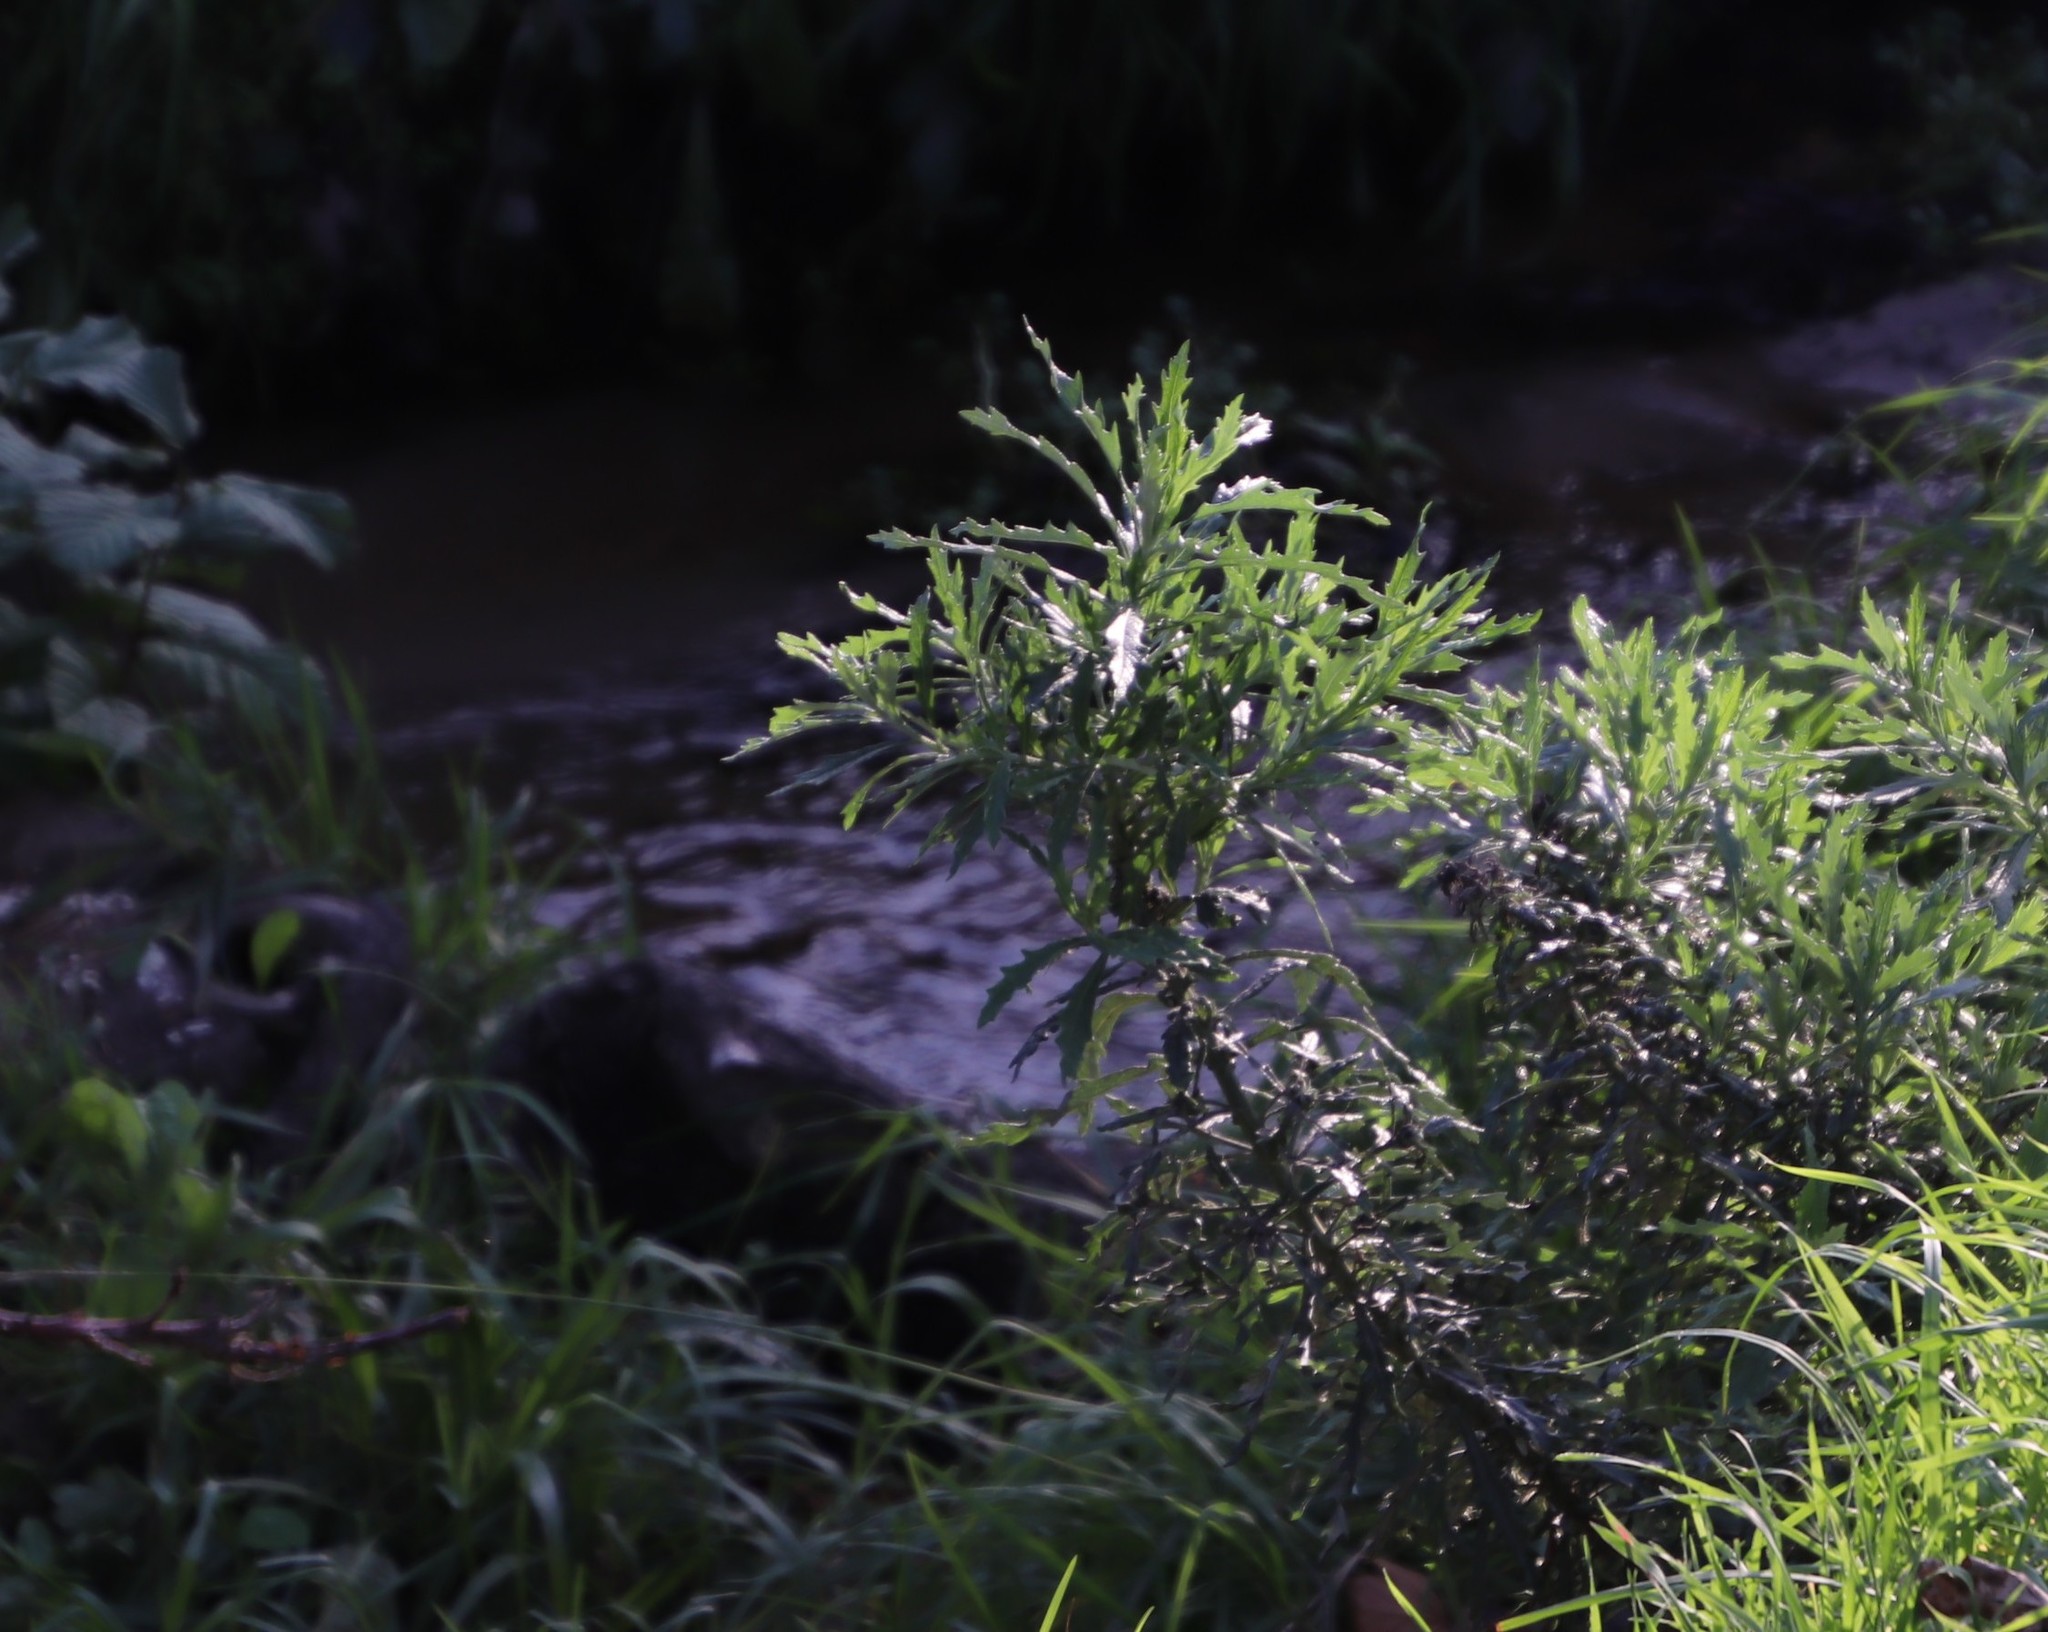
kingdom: Plantae
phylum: Tracheophyta
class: Magnoliopsida
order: Asterales
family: Asteraceae
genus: Senecio
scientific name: Senecio pterophorus
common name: Shoddy ragwort
